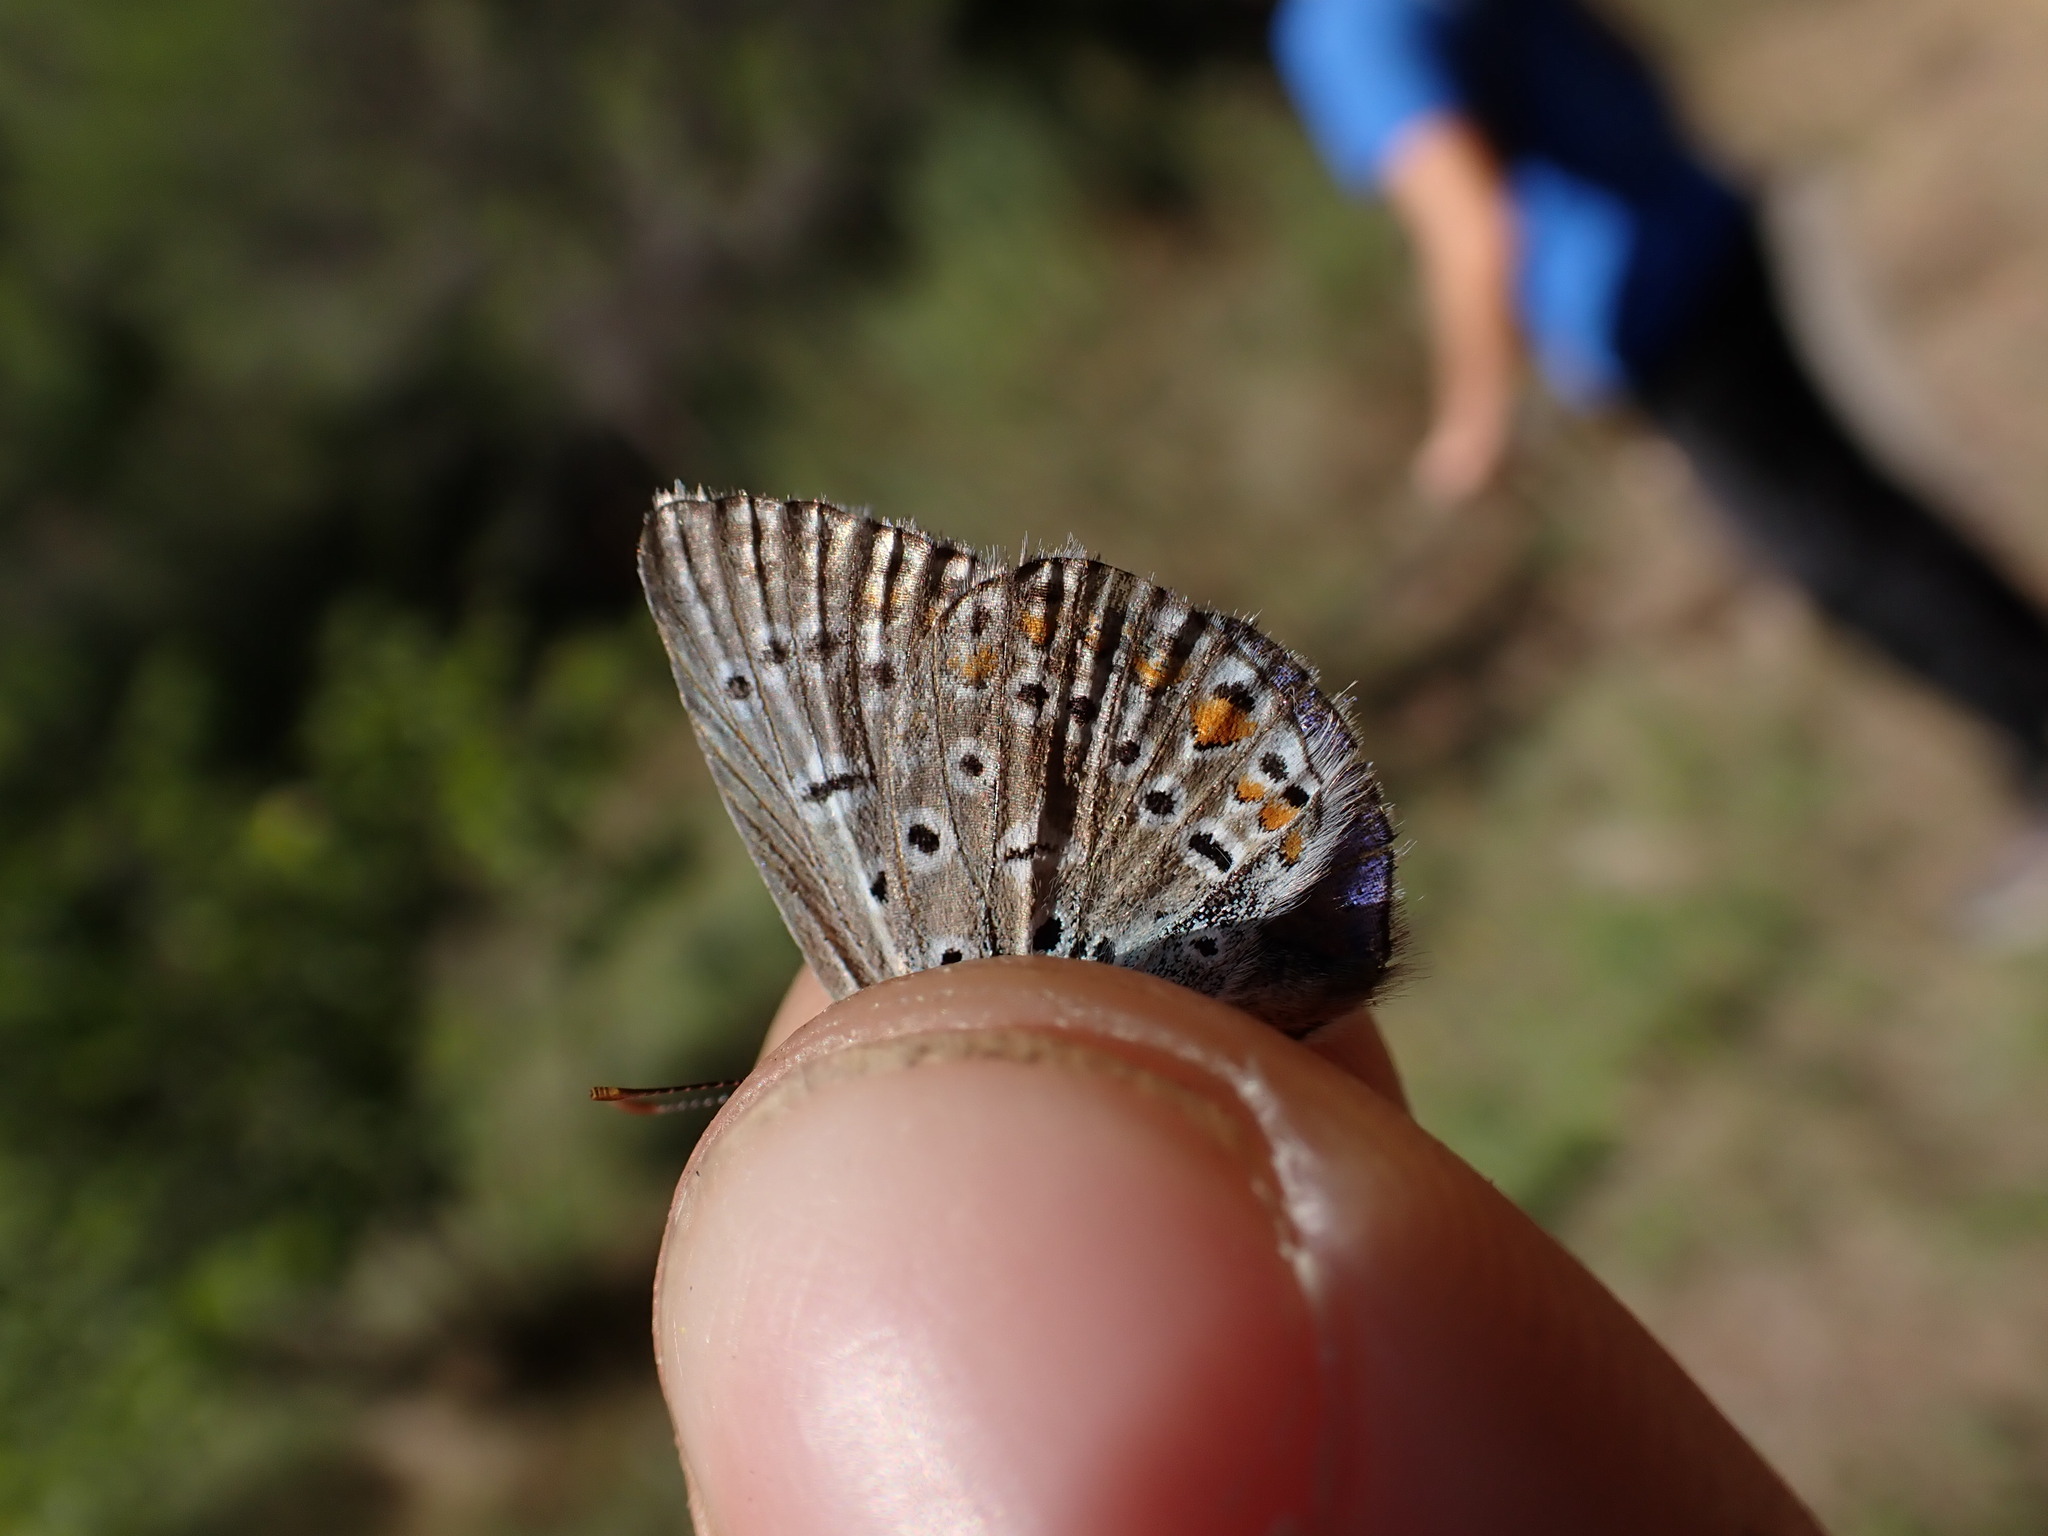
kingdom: Animalia
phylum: Arthropoda
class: Insecta
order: Lepidoptera
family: Lycaenidae
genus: Polyommatus
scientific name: Polyommatus icarus
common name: Common blue
